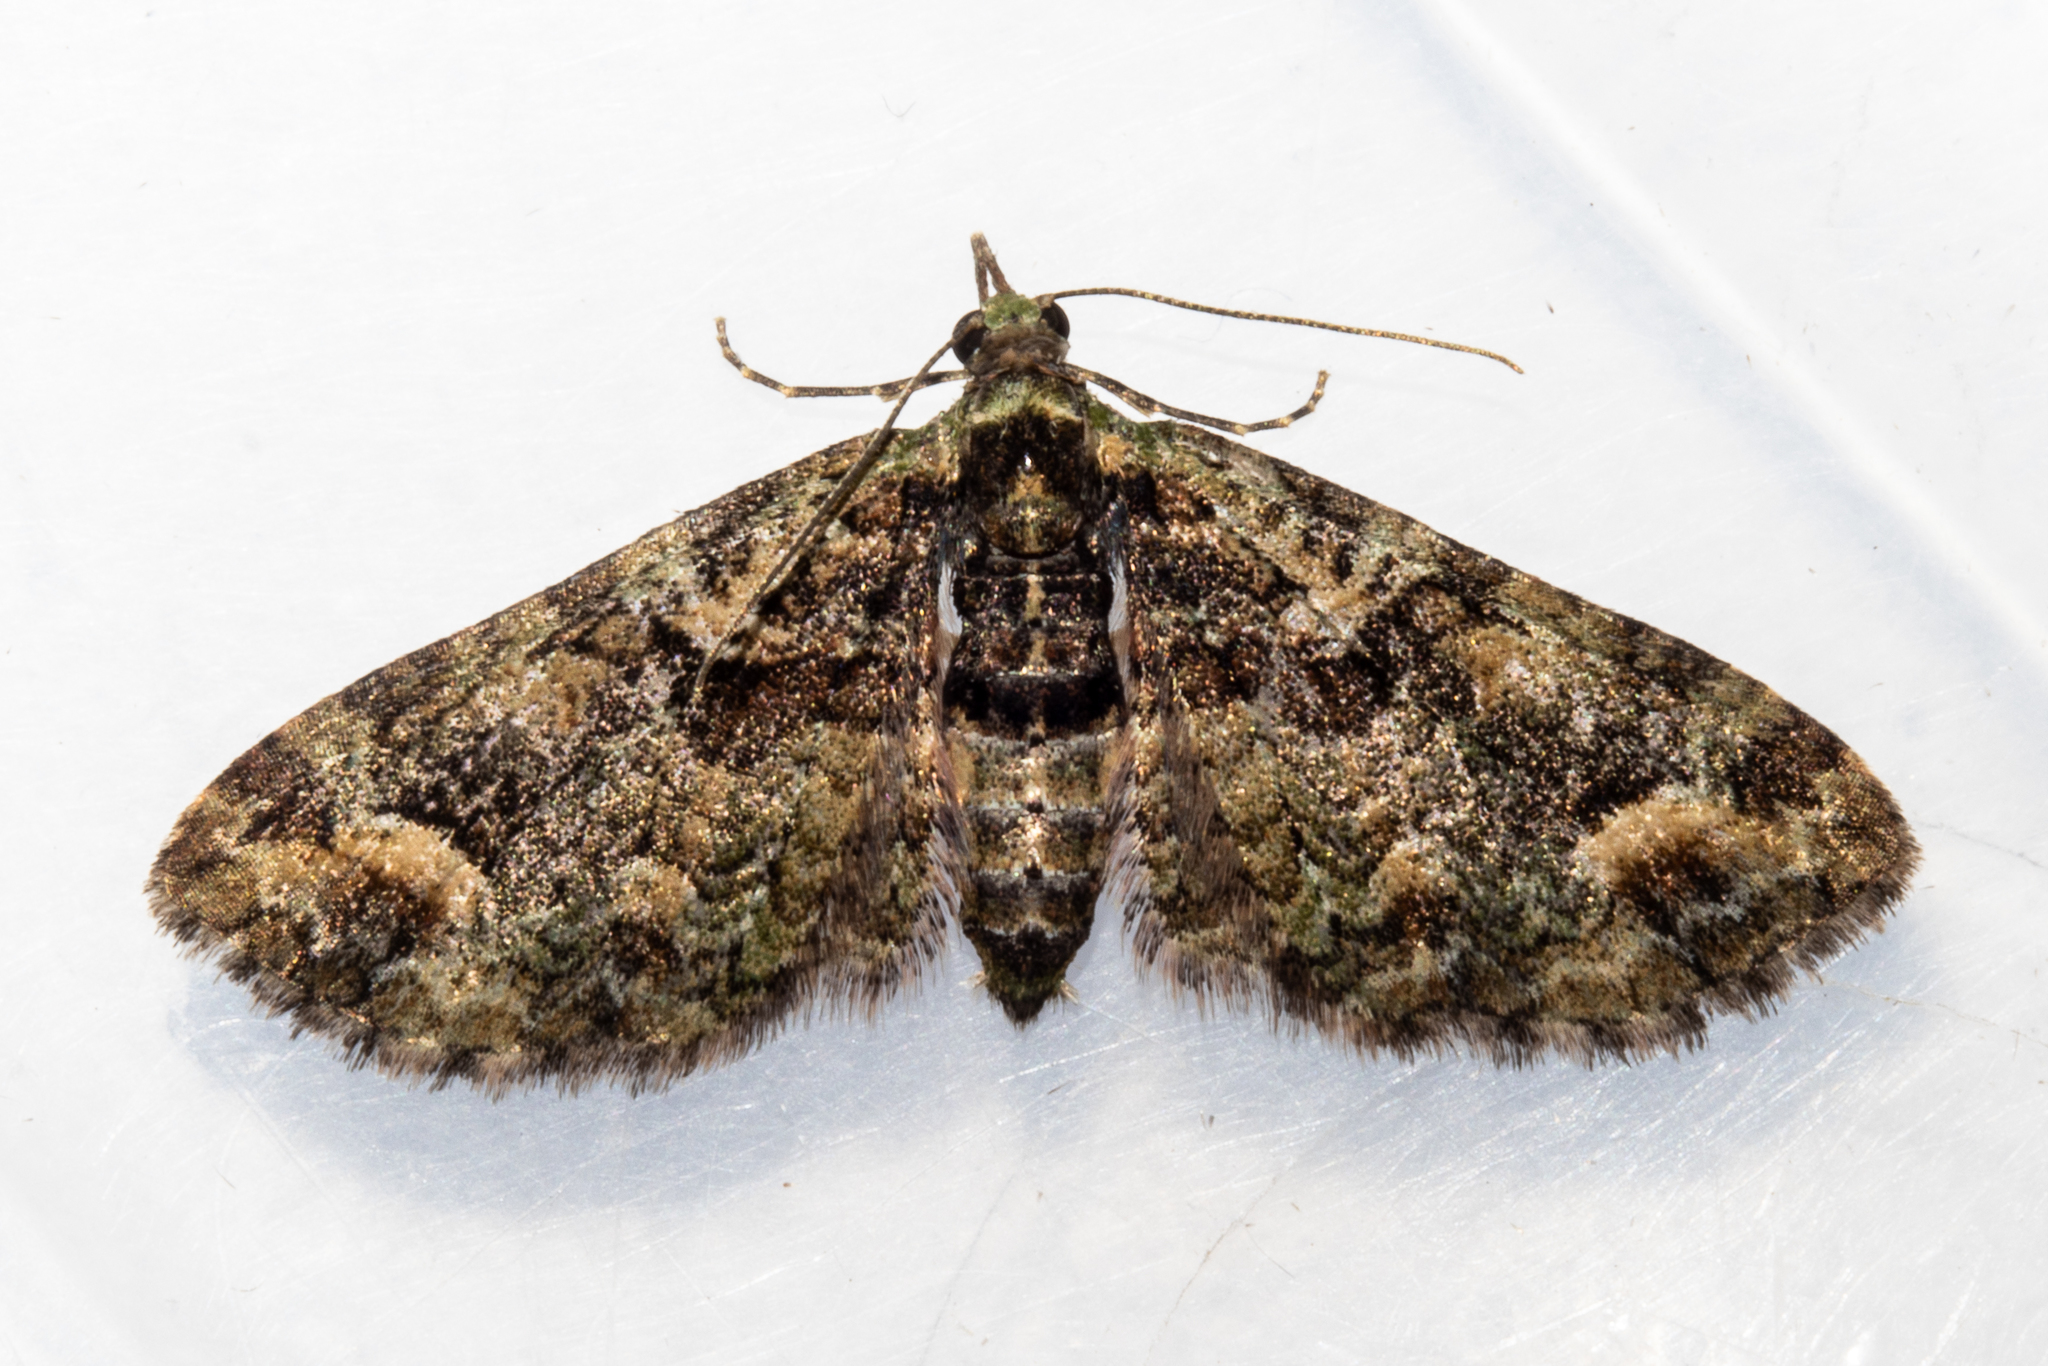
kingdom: Animalia
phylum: Arthropoda
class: Insecta
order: Lepidoptera
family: Geometridae
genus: Idaea
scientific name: Idaea mutanda
